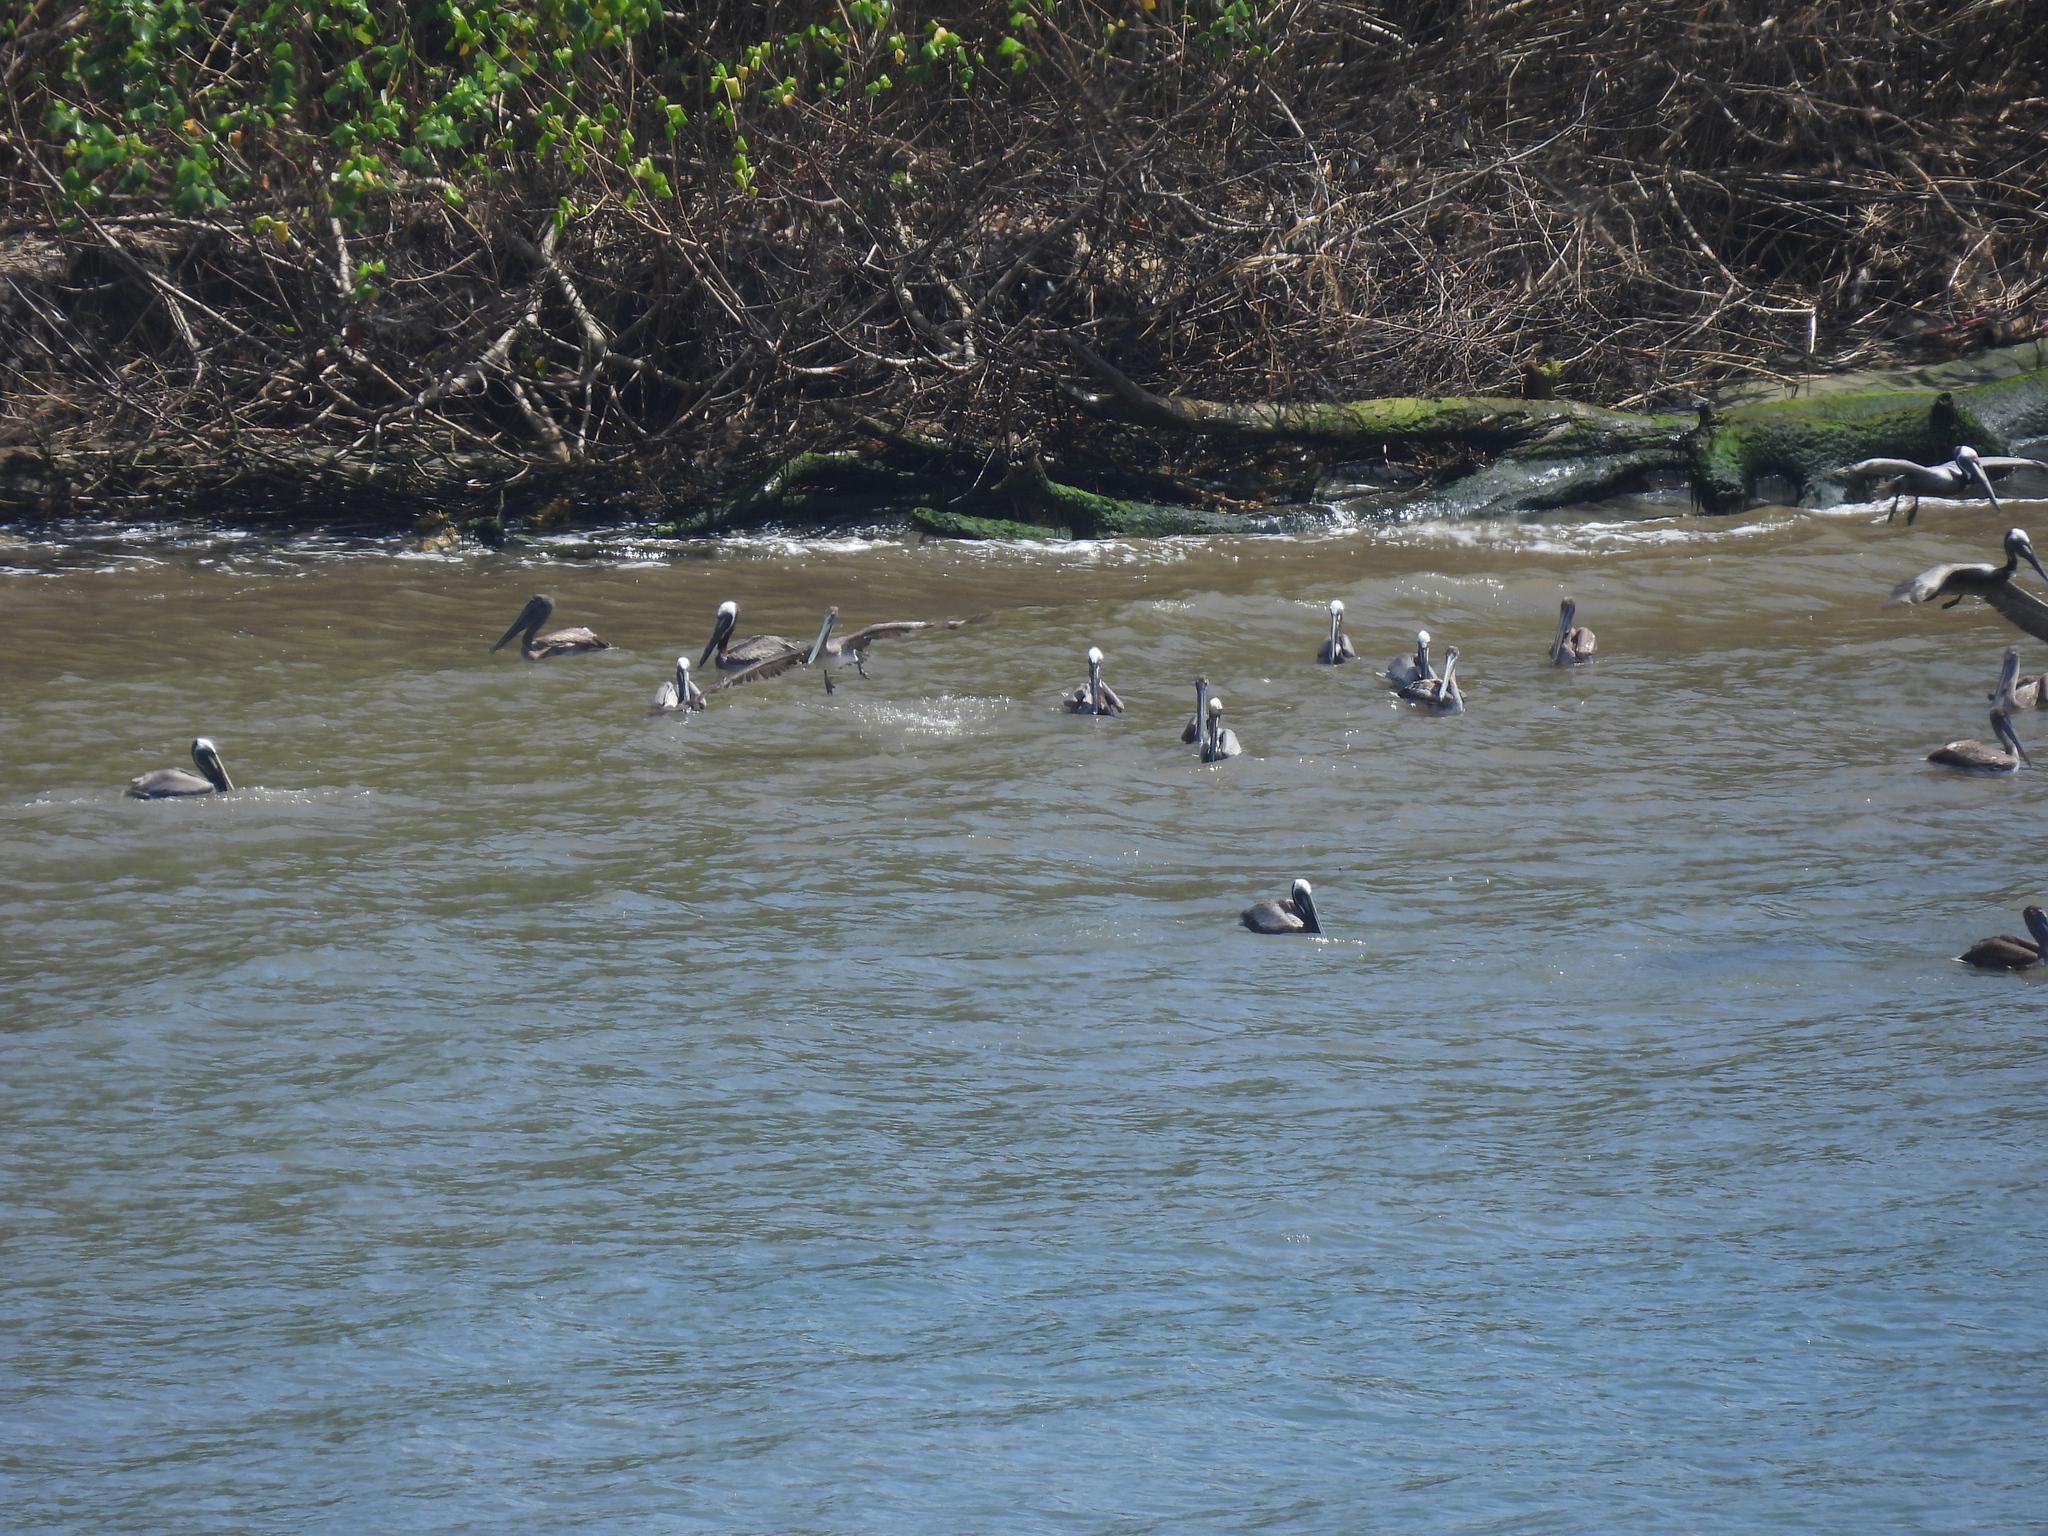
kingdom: Animalia
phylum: Chordata
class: Aves
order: Pelecaniformes
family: Pelecanidae
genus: Pelecanus
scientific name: Pelecanus occidentalis
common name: Brown pelican
